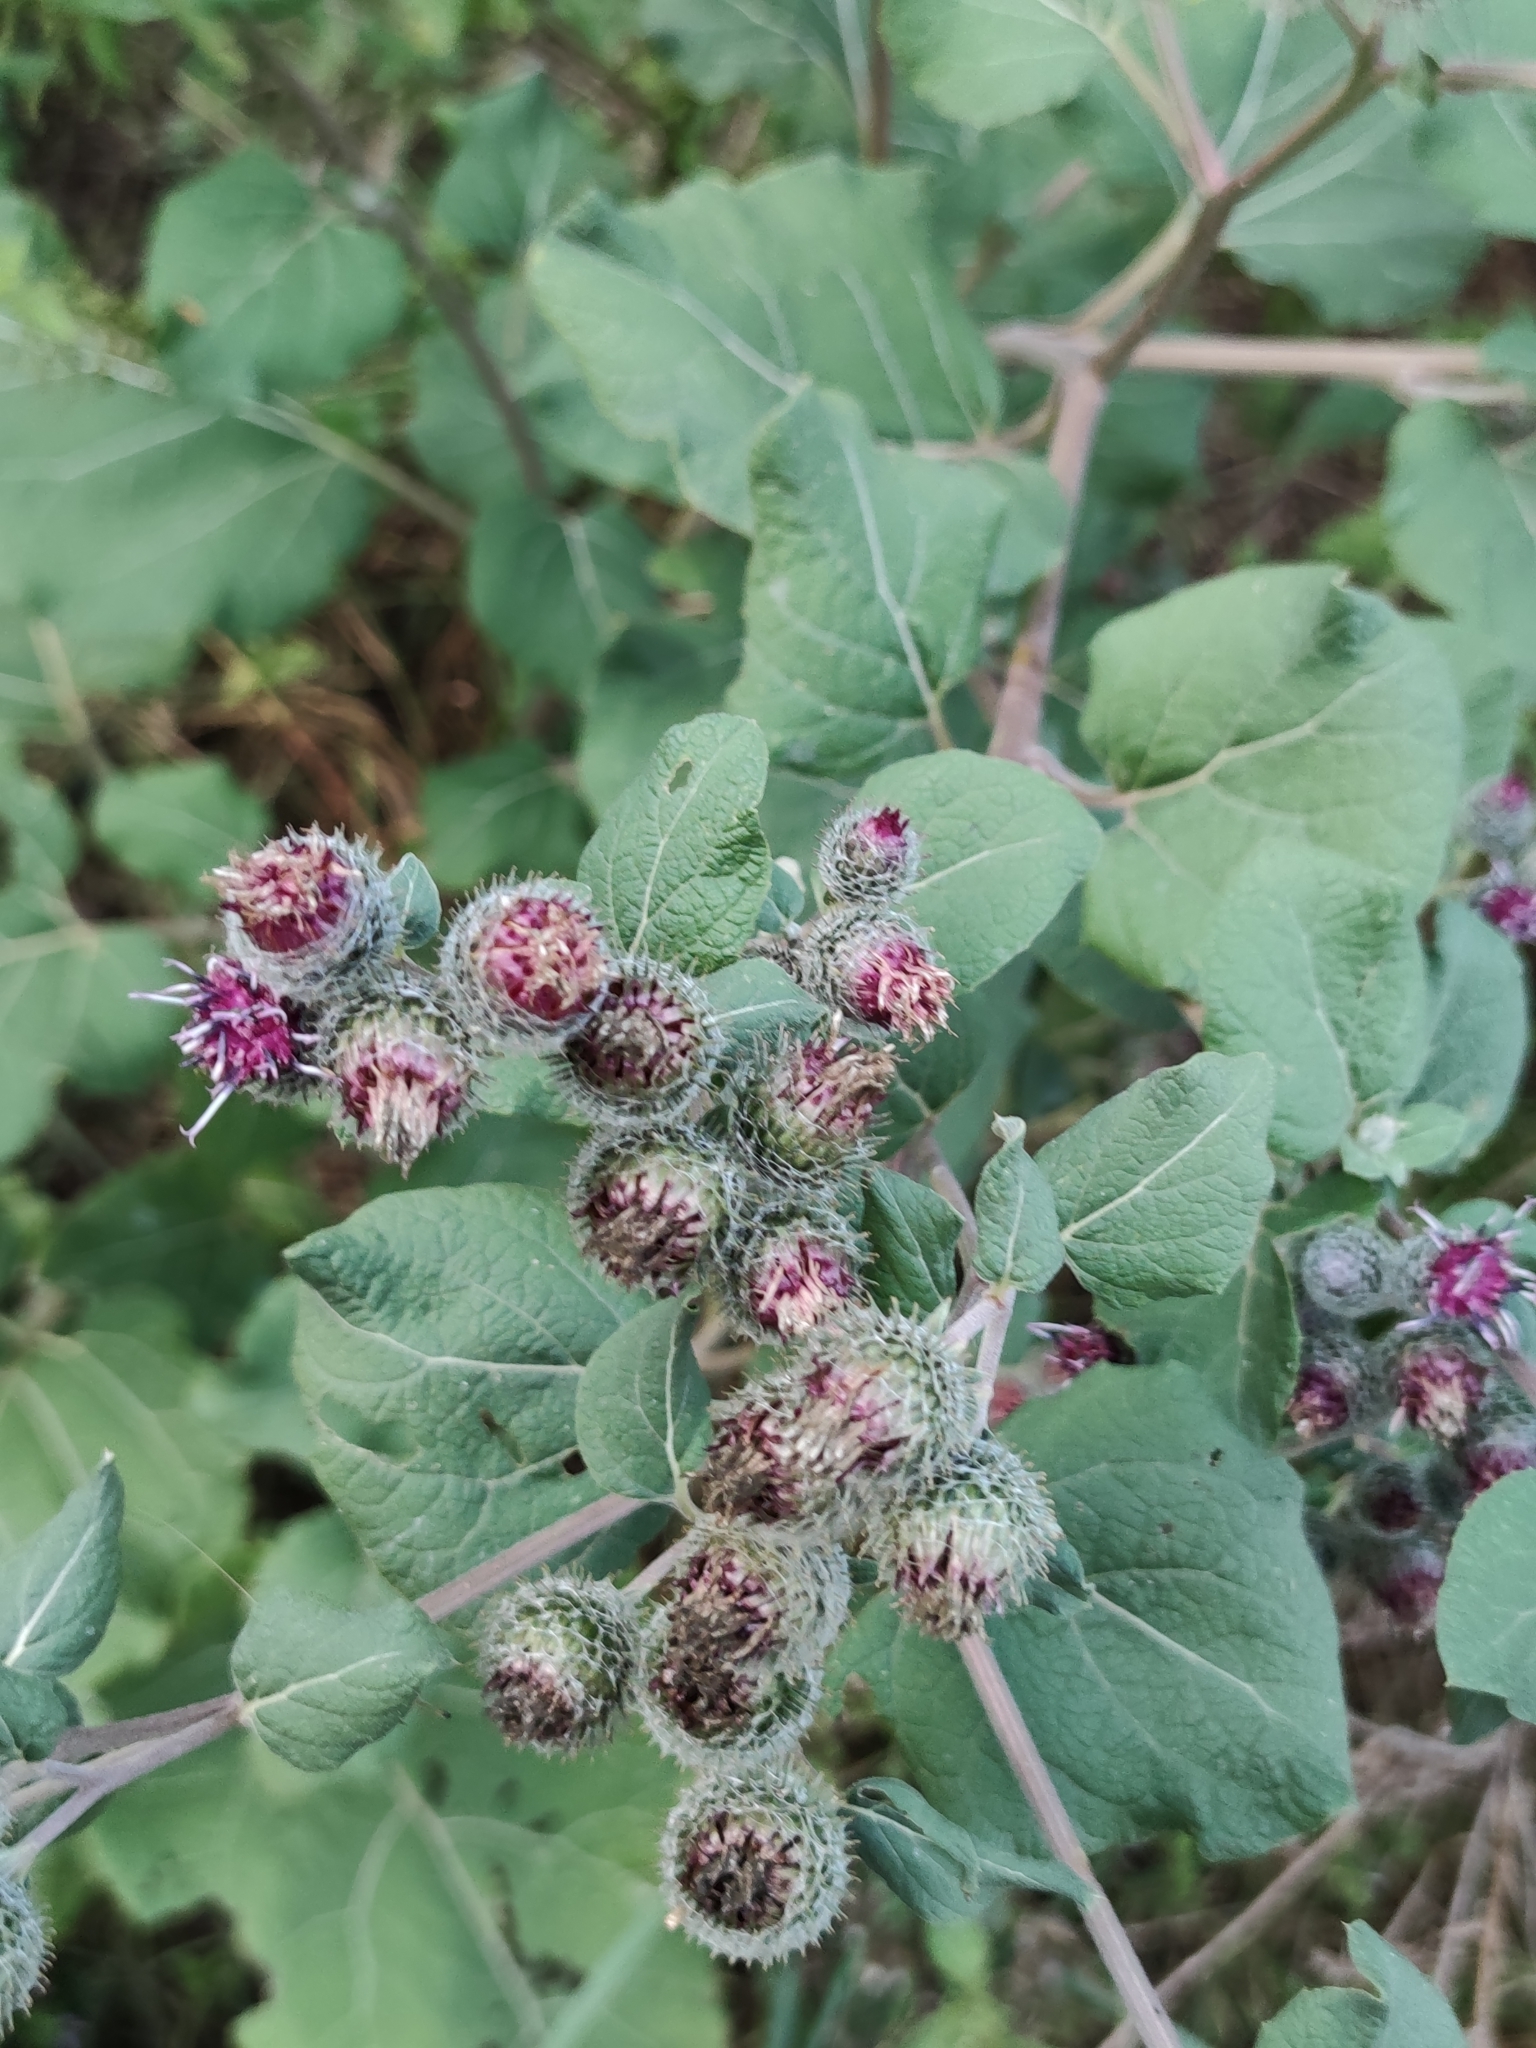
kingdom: Plantae
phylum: Tracheophyta
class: Magnoliopsida
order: Asterales
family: Asteraceae
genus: Arctium
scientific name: Arctium tomentosum
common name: Woolly burdock
